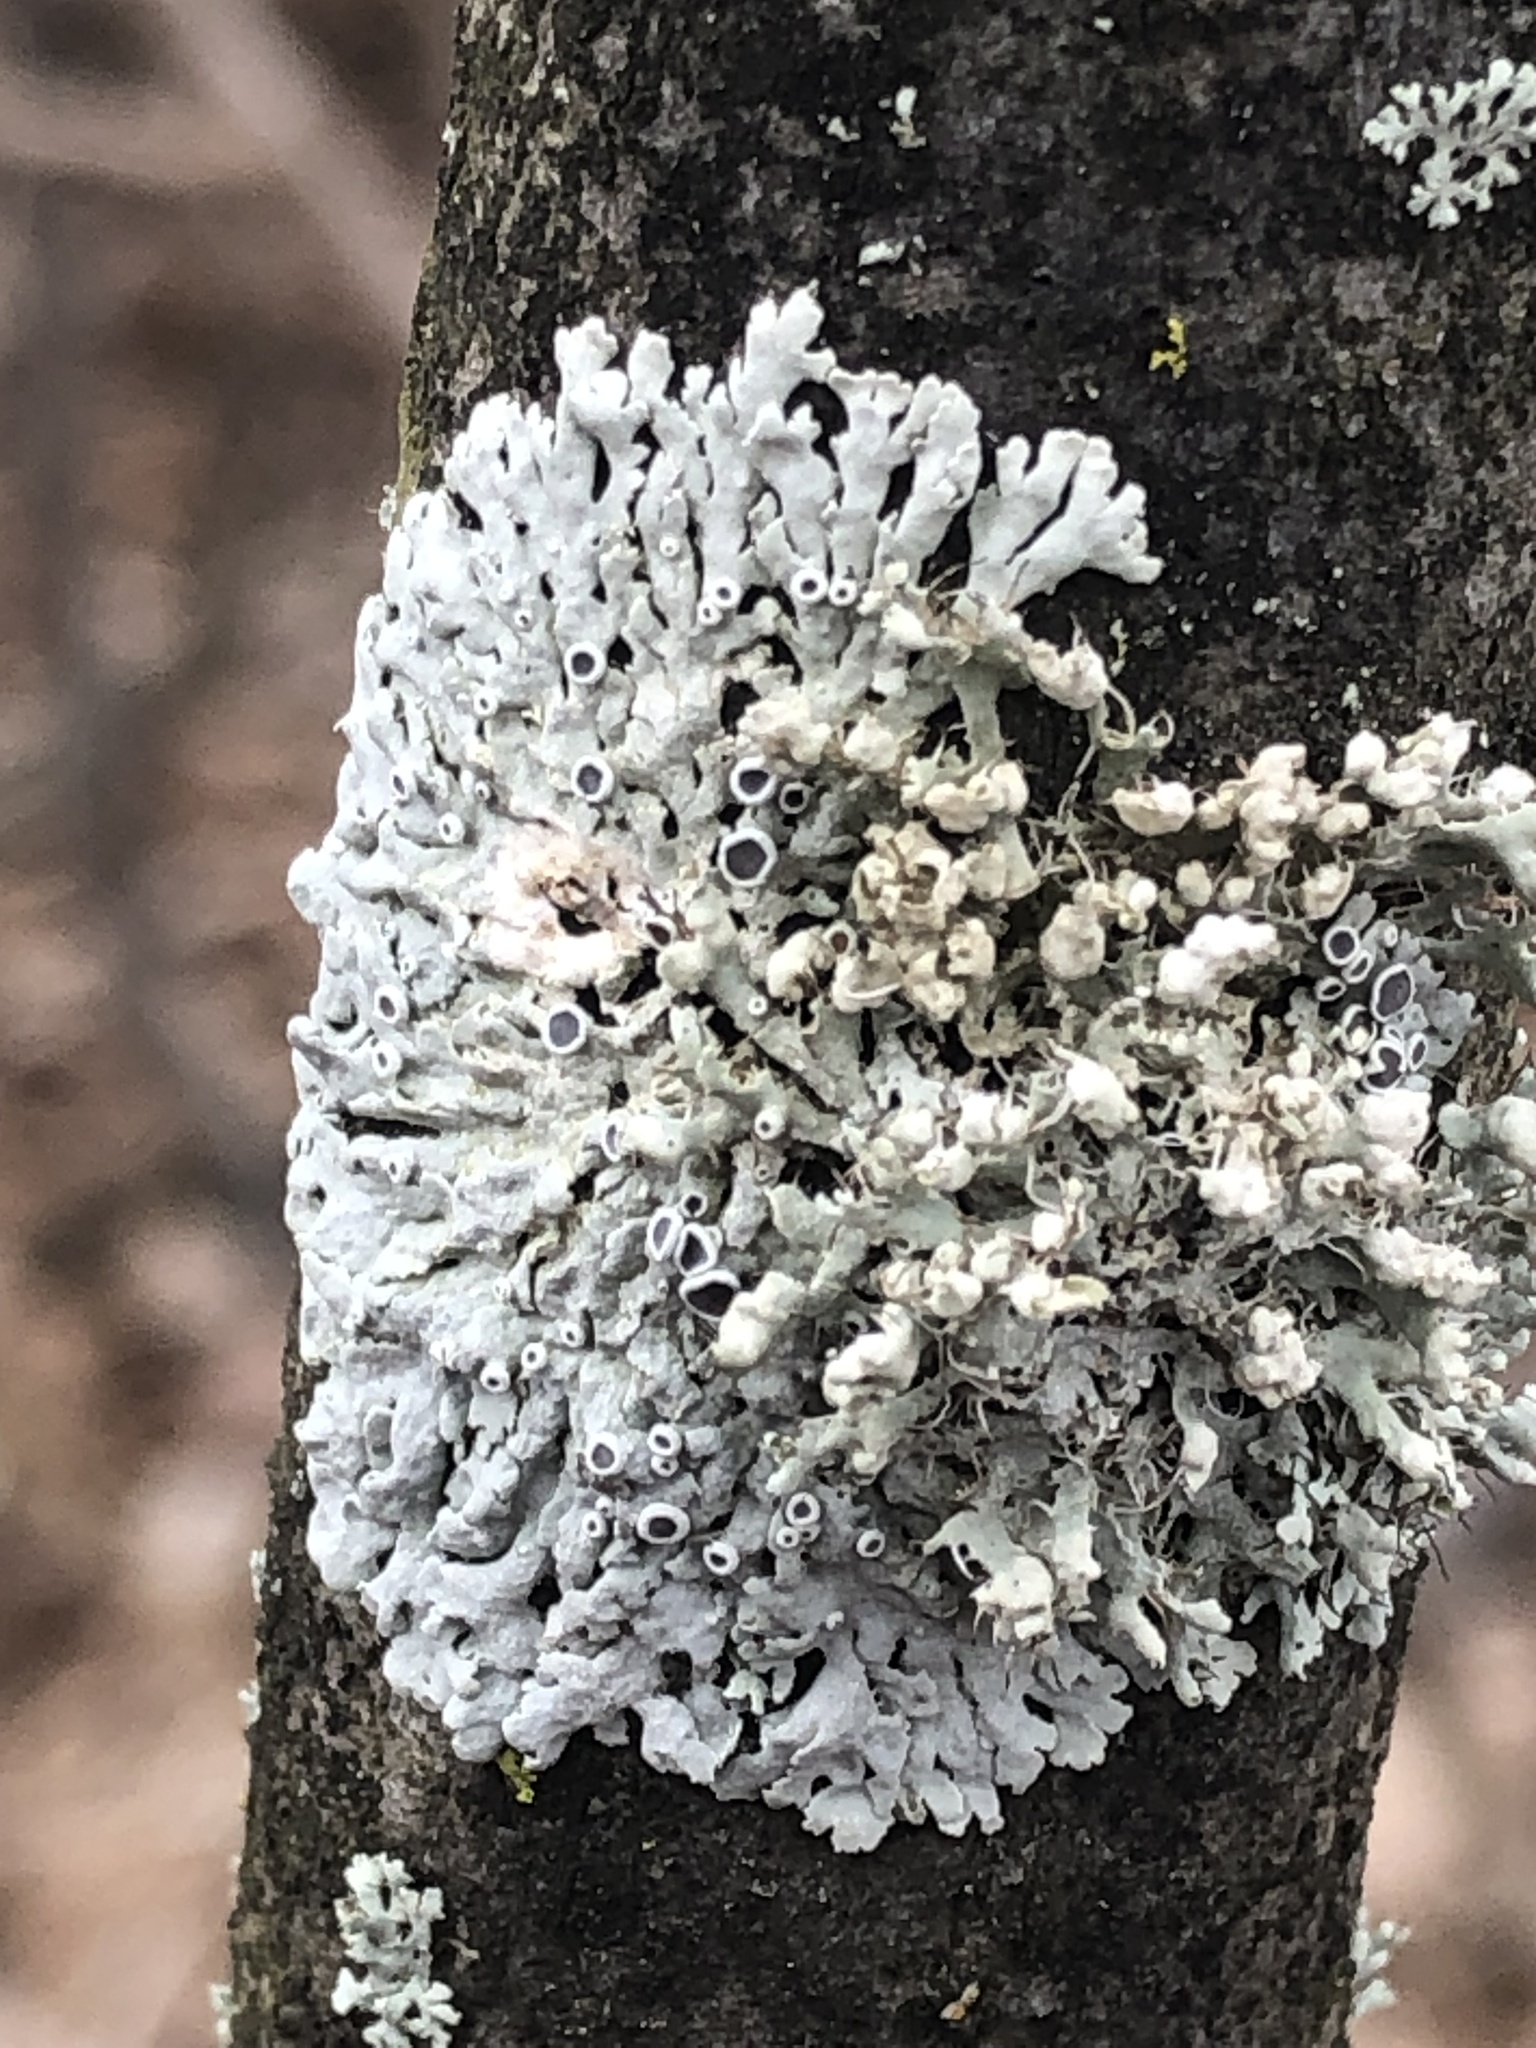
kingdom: Fungi
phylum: Ascomycota
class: Lecanoromycetes
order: Caliciales
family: Physciaceae
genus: Physcia
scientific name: Physcia adscendens
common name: Hooded rosette lichen
